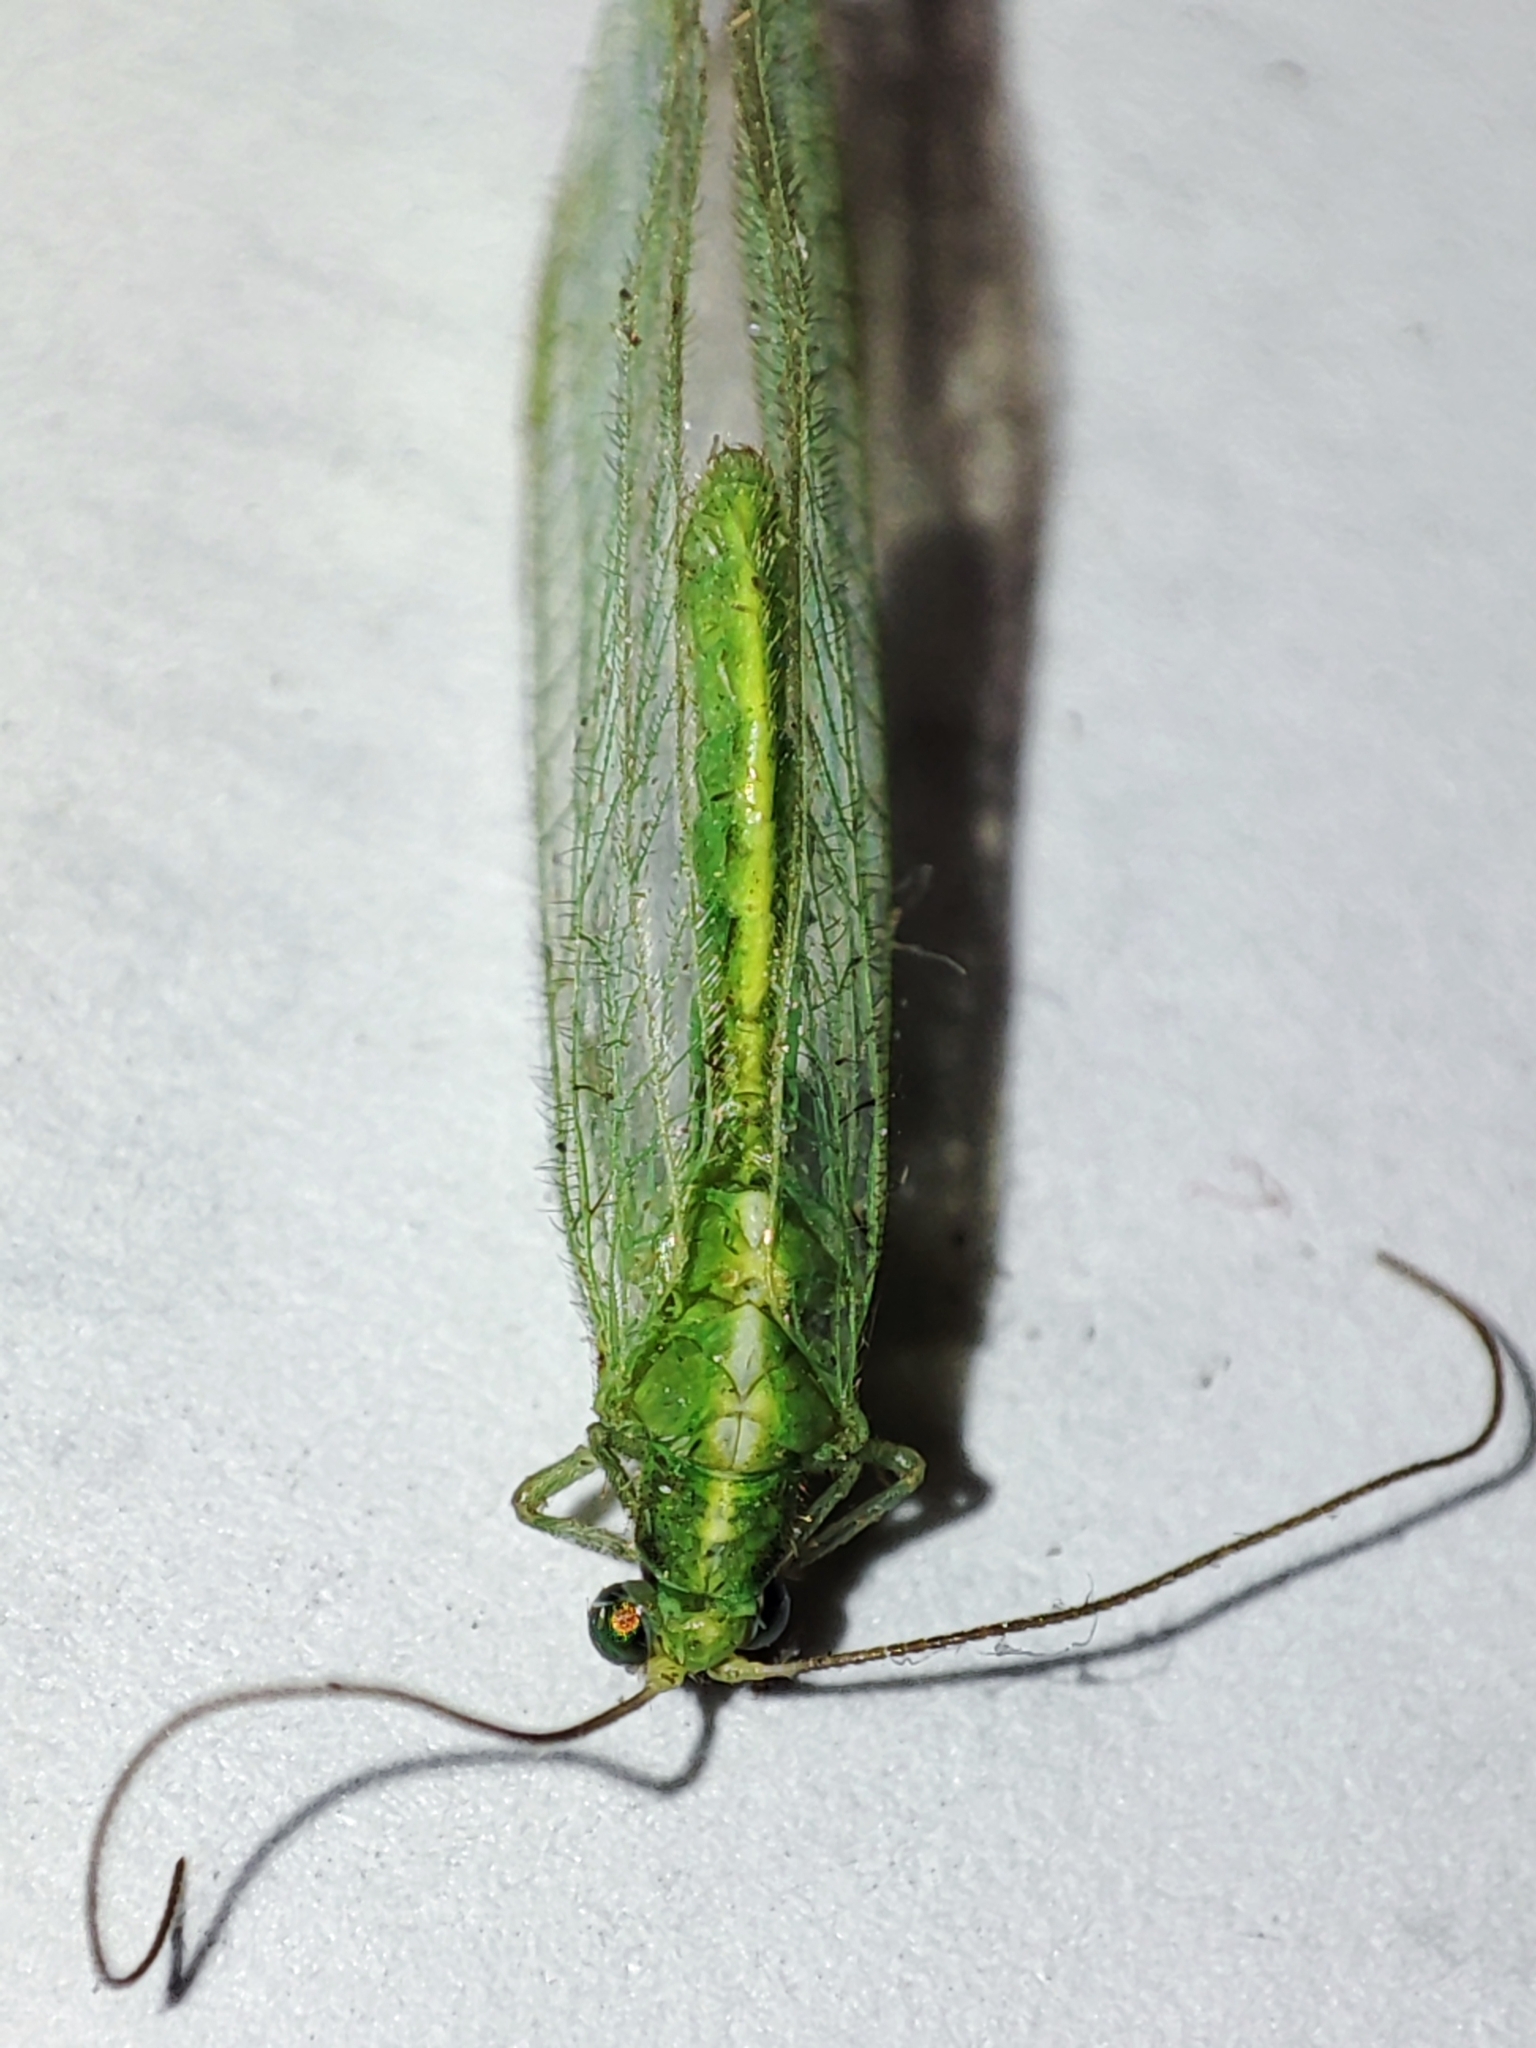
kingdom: Animalia
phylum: Arthropoda
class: Insecta
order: Neuroptera
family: Chrysopidae
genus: Chrysoperla
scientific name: Chrysoperla
